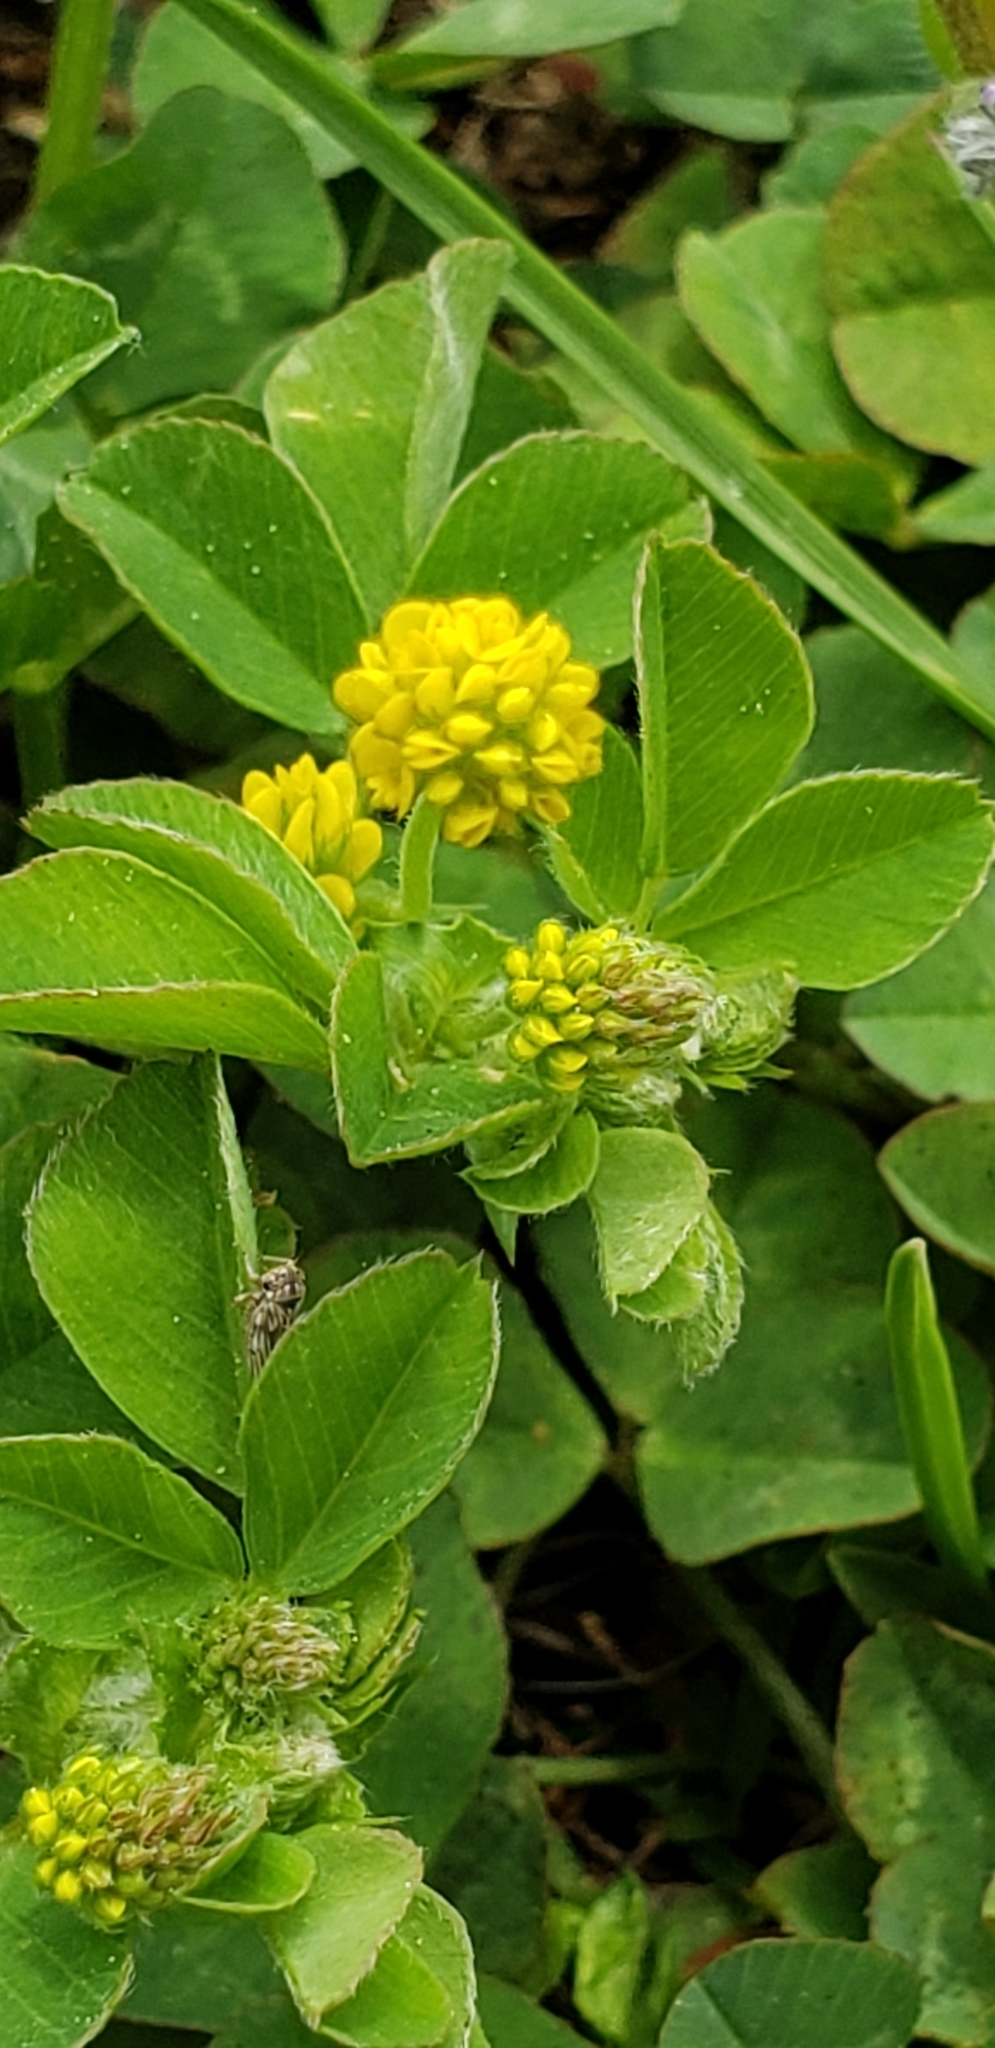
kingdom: Plantae
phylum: Tracheophyta
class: Magnoliopsida
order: Fabales
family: Fabaceae
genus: Medicago
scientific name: Medicago lupulina
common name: Black medick
